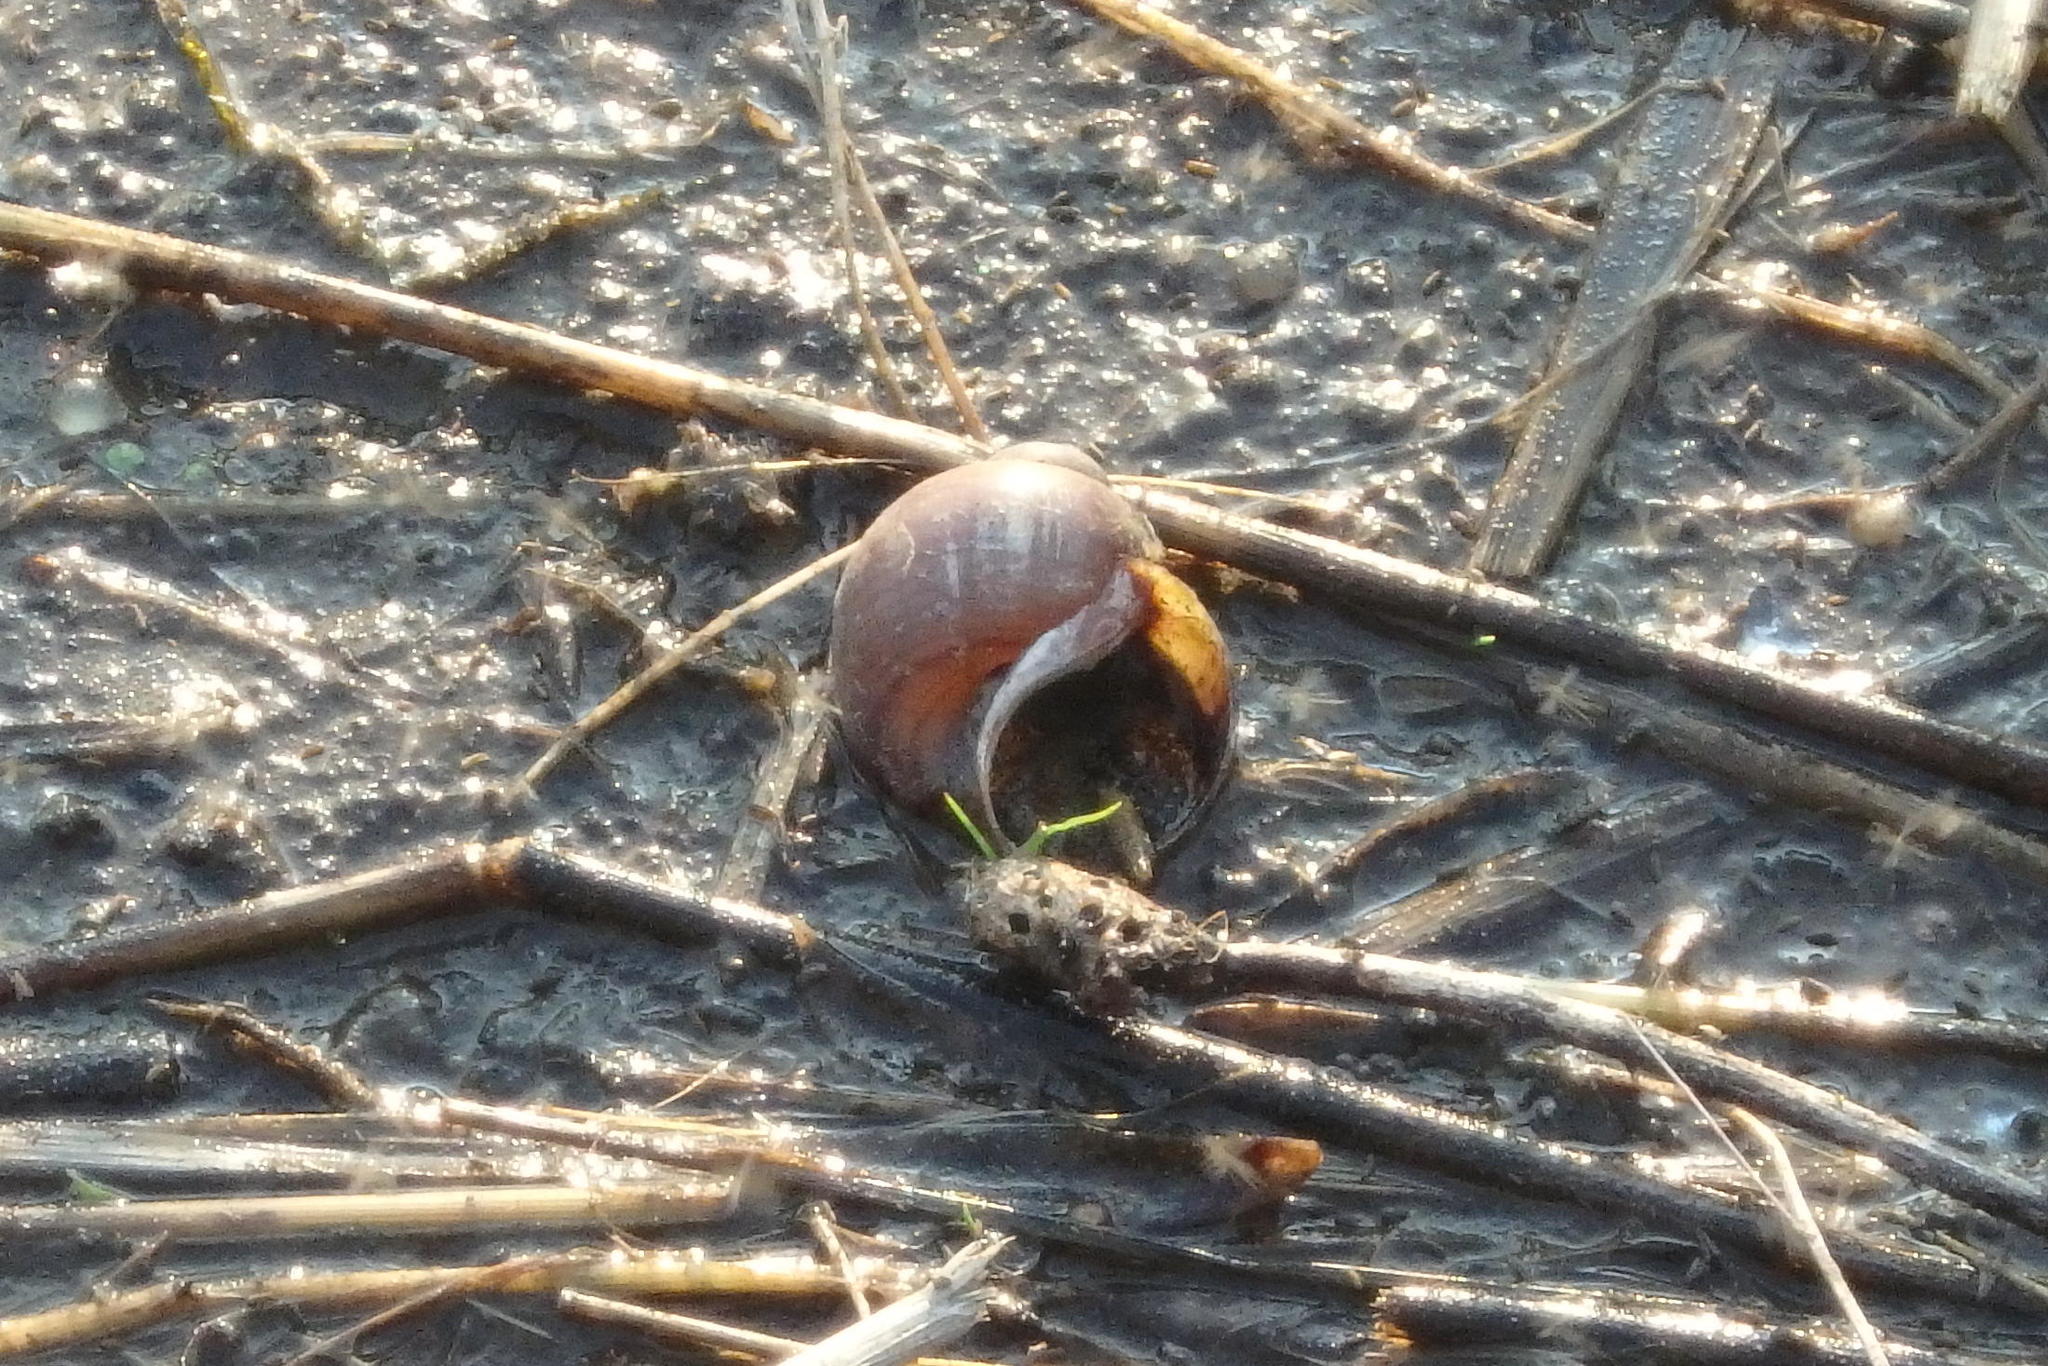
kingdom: Animalia
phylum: Mollusca
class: Gastropoda
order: Architaenioglossa
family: Ampullariidae
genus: Pomacea
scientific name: Pomacea canaliculata
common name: Channeled applesnail
